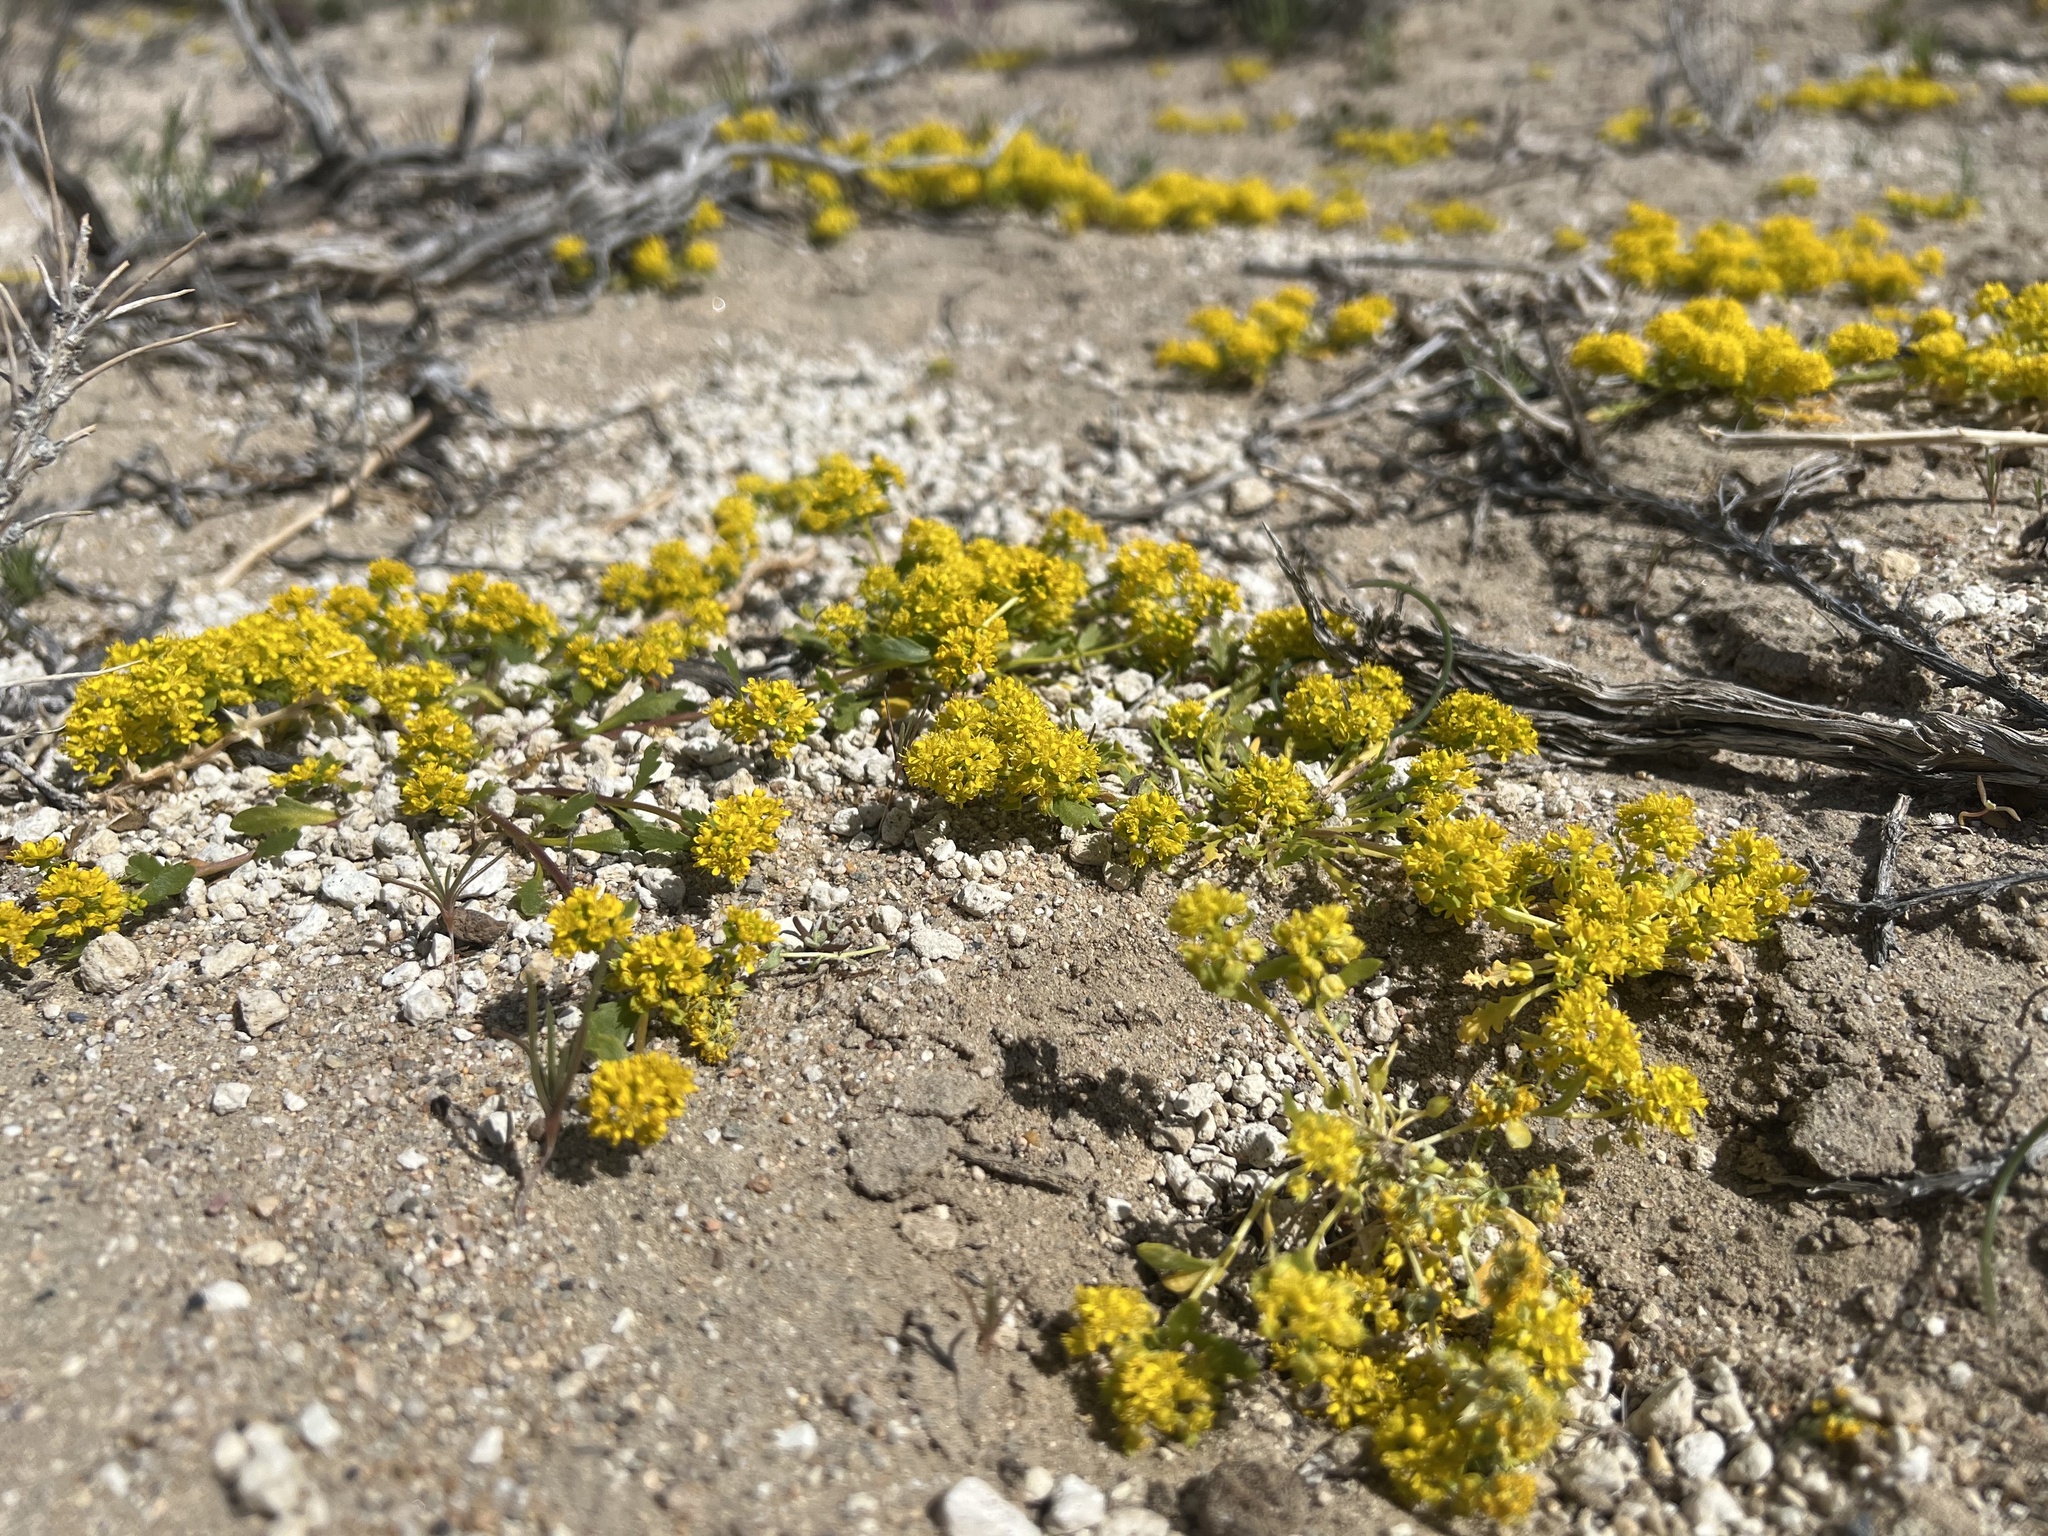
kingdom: Plantae
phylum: Tracheophyta
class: Magnoliopsida
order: Brassicales
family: Brassicaceae
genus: Lepidium
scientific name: Lepidium flavum
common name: Yellow pepperwort
